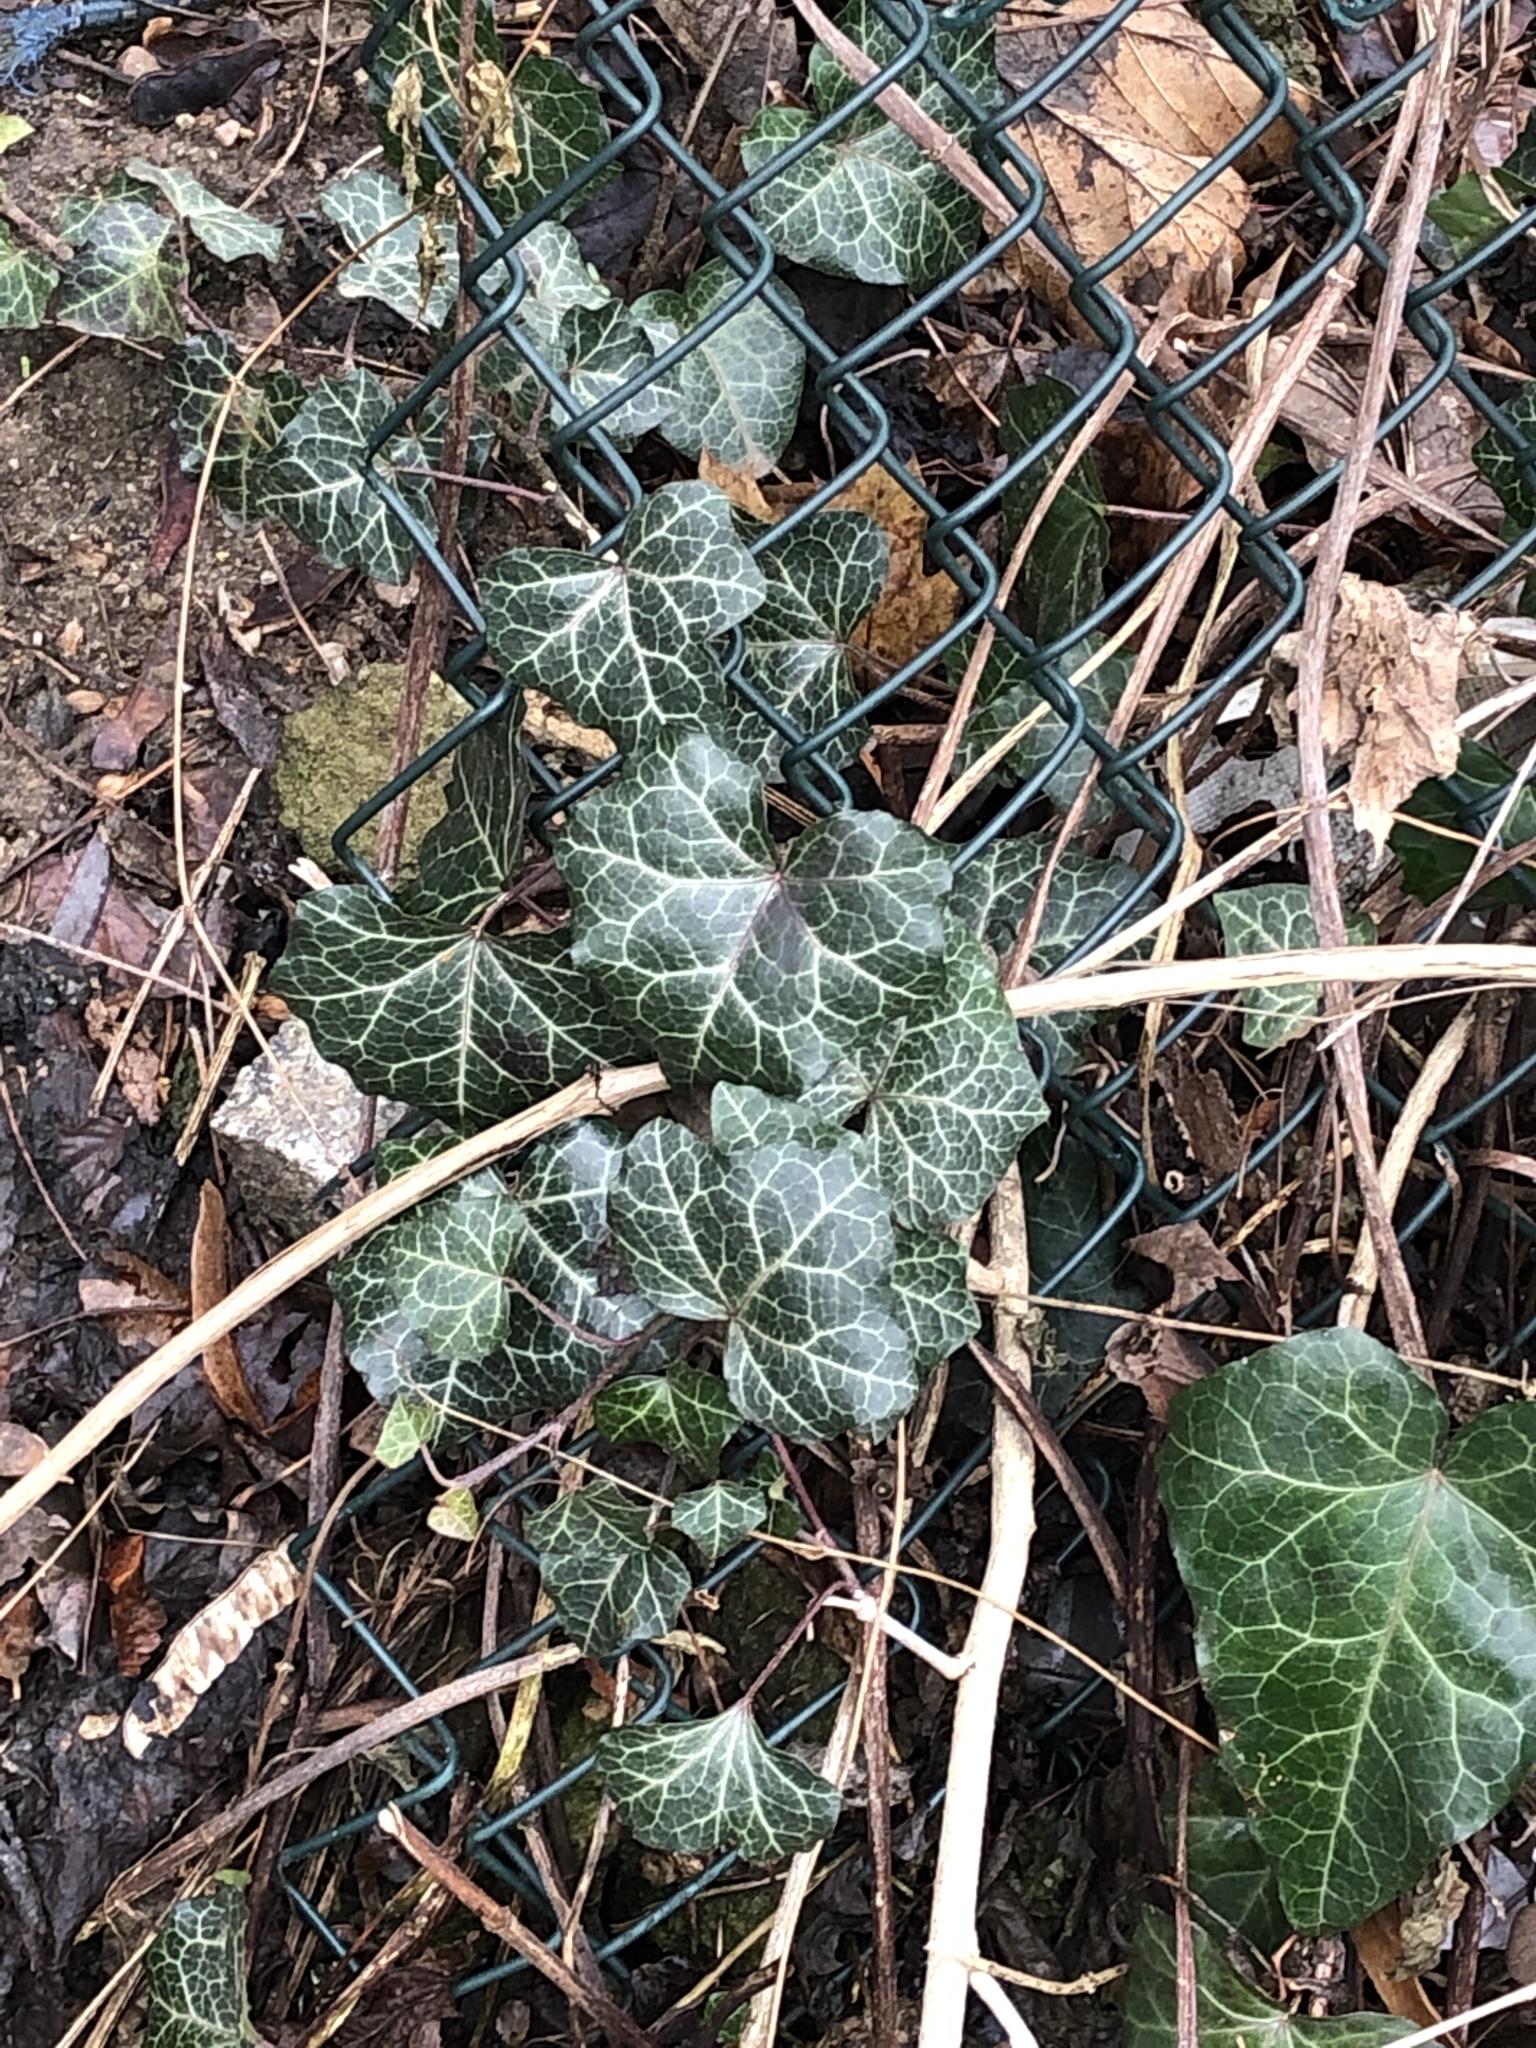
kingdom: Plantae
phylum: Tracheophyta
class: Magnoliopsida
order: Apiales
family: Araliaceae
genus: Hedera
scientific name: Hedera helix
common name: Ivy
